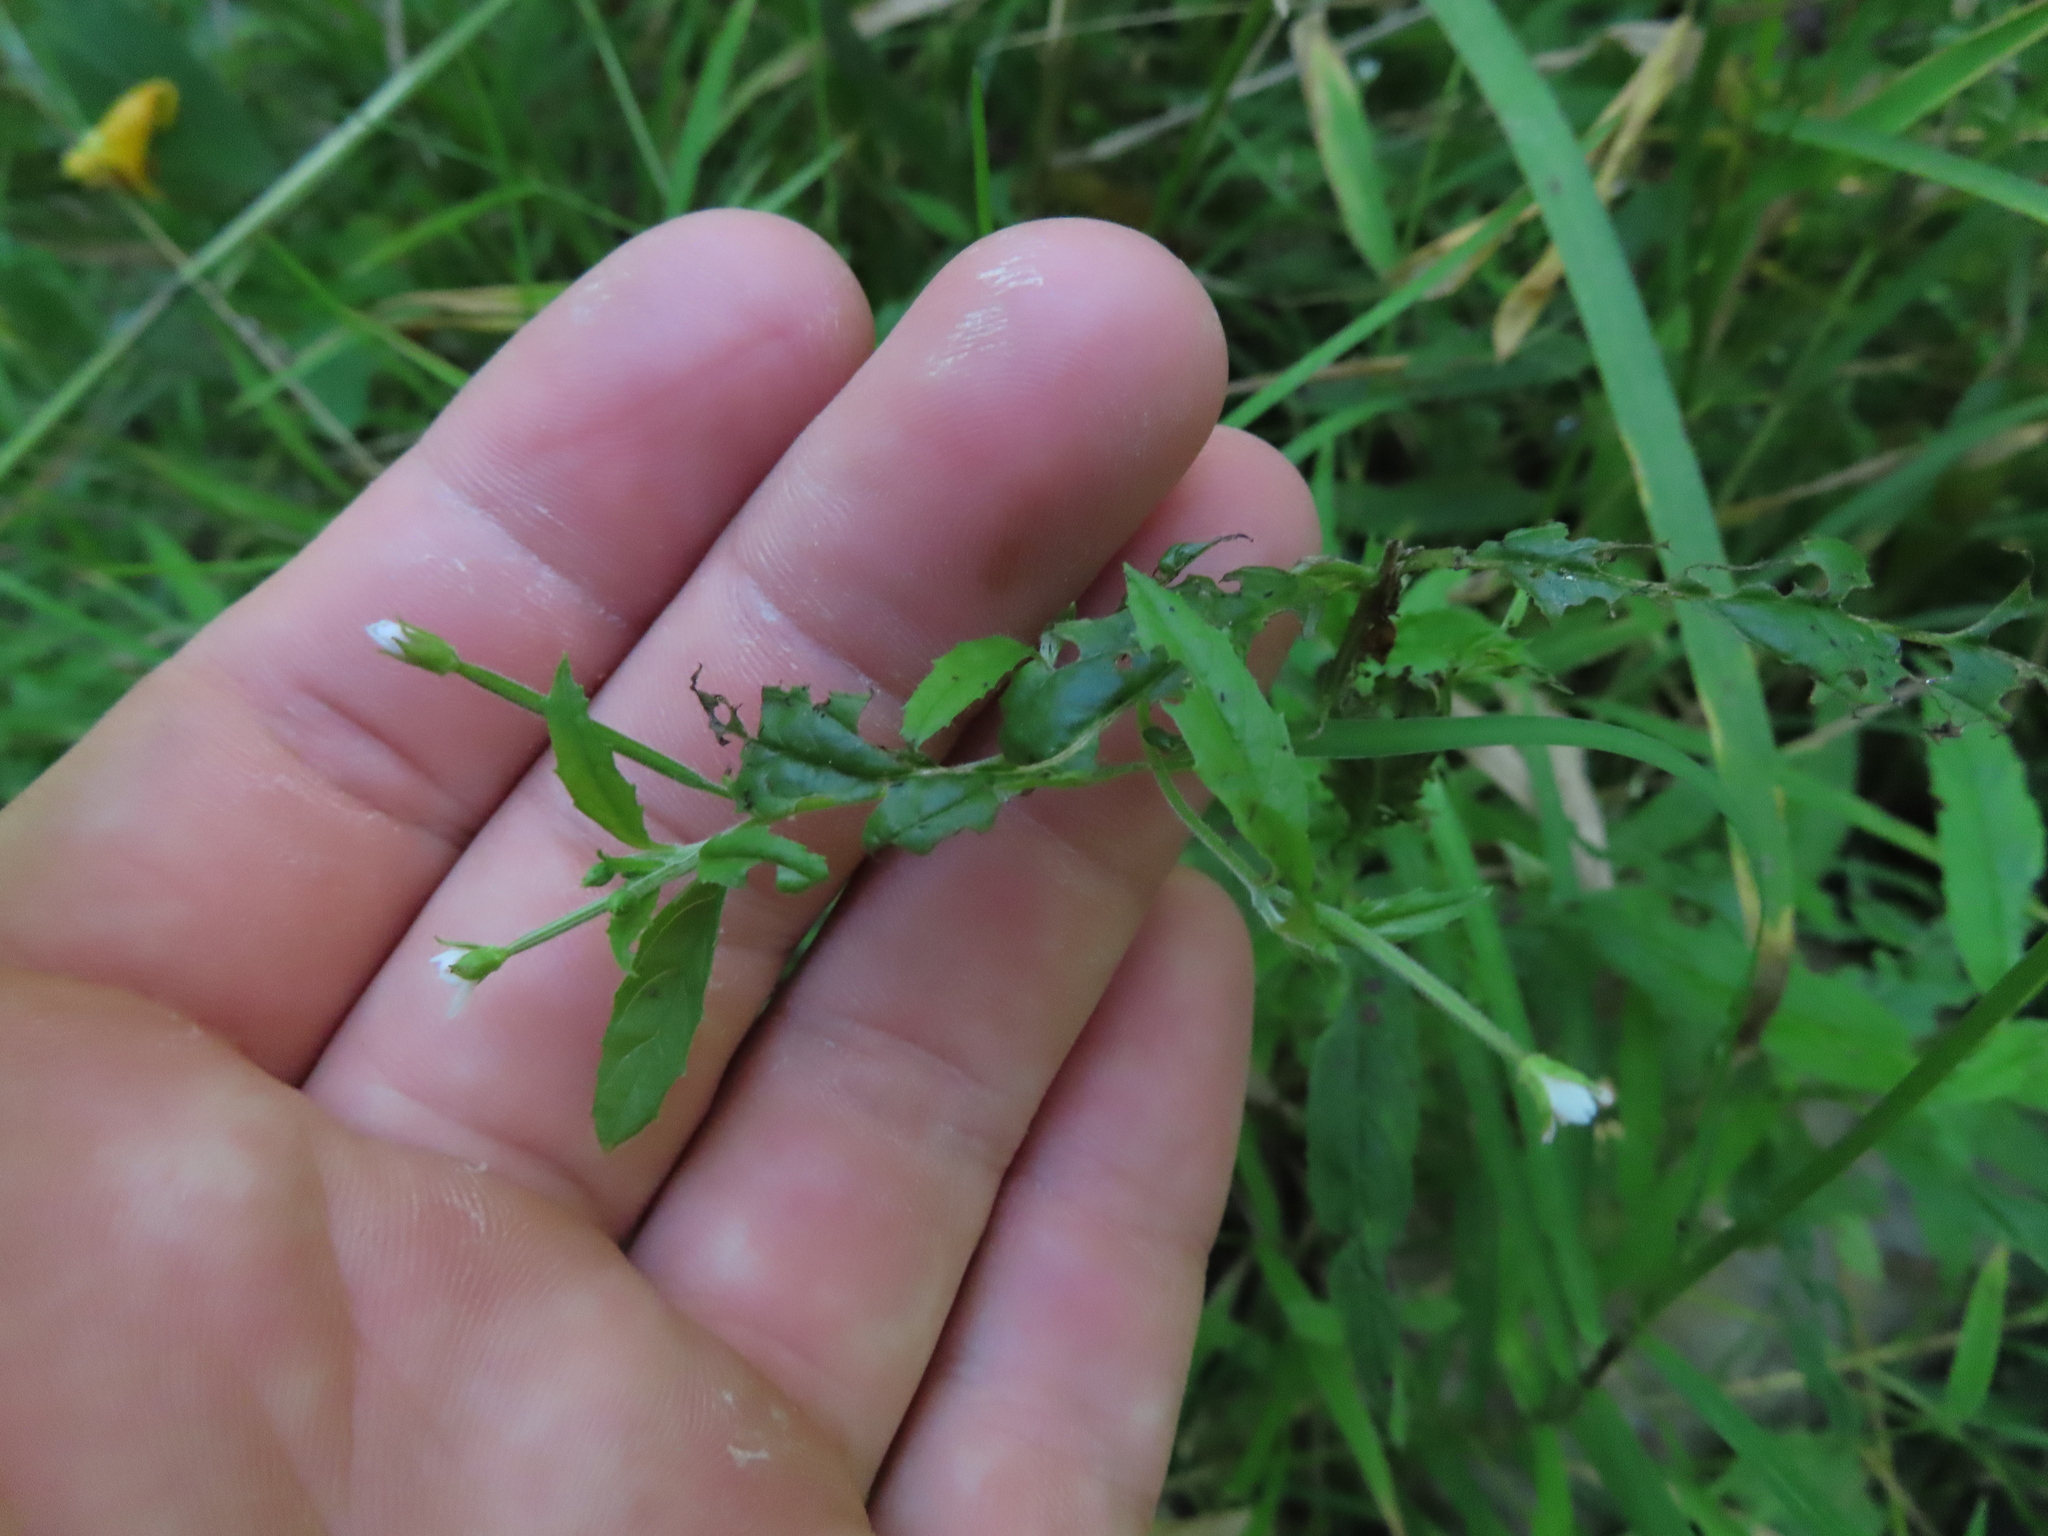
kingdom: Plantae
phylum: Tracheophyta
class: Magnoliopsida
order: Myrtales
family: Onagraceae
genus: Epilobium
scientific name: Epilobium coloratum
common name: Bronze willowherb
